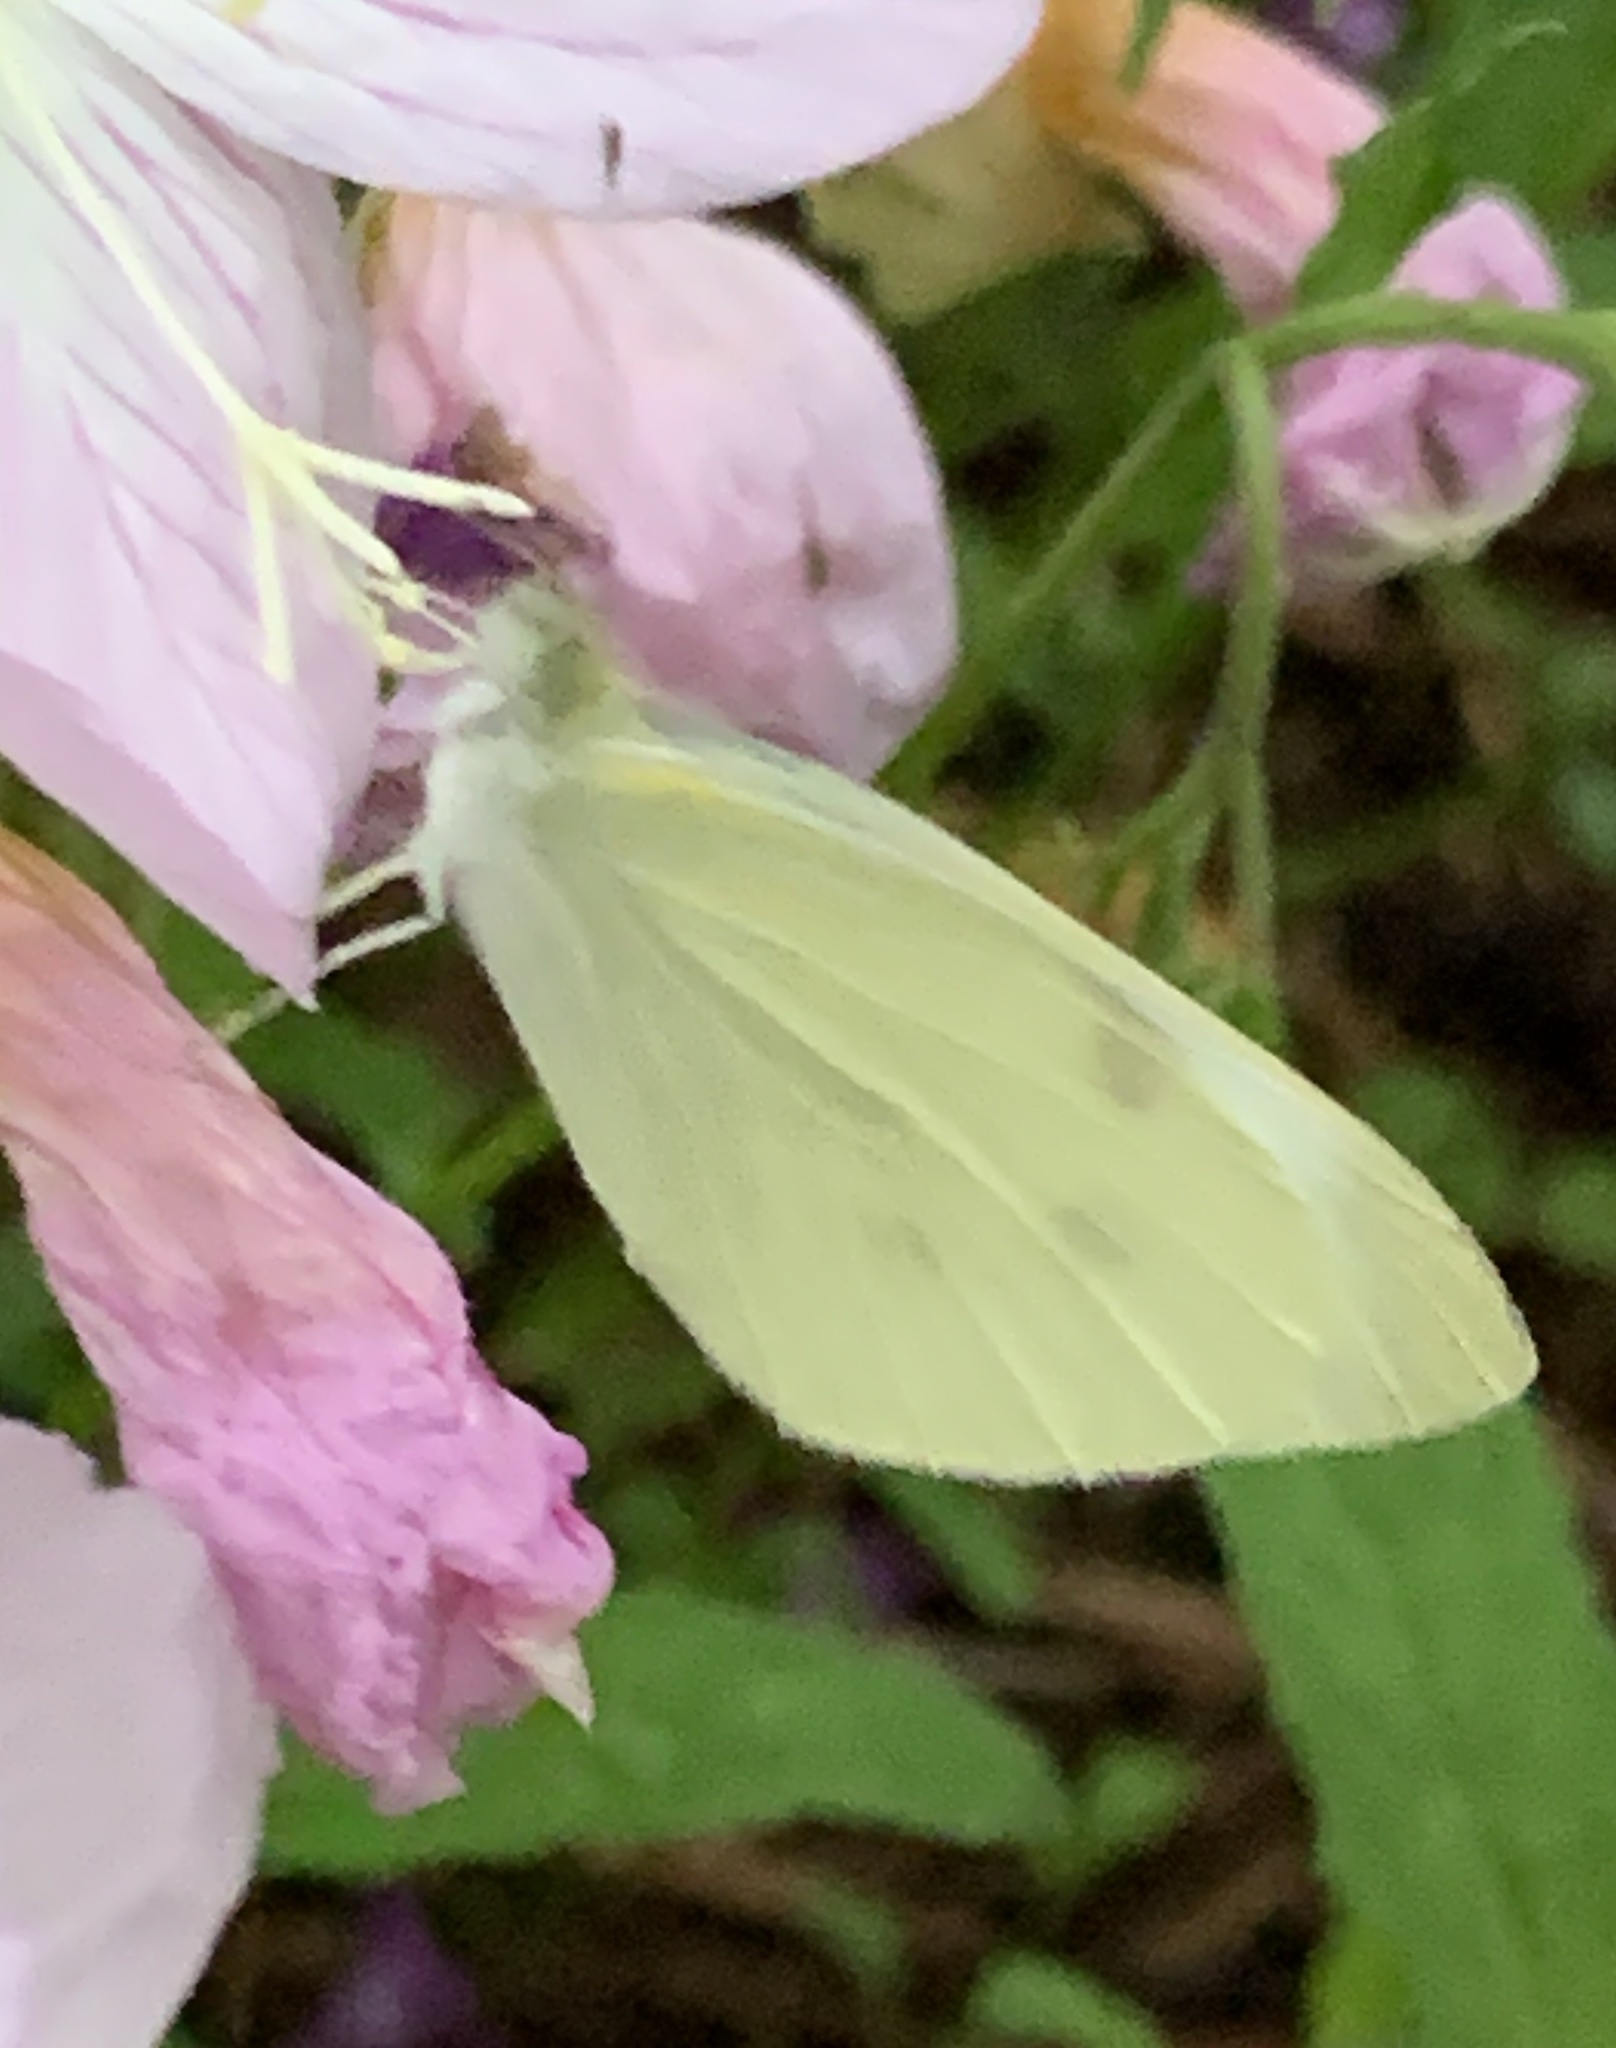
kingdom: Animalia
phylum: Arthropoda
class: Insecta
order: Lepidoptera
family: Pieridae
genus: Pieris
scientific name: Pieris rapae
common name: Small white
